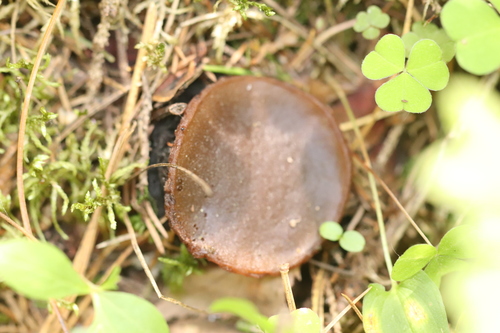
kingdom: Fungi
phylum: Ascomycota
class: Pezizomycetes
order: Pezizales
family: Sarcosomataceae
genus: Sarcosoma
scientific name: Sarcosoma globosum
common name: Charred-pancake cup
